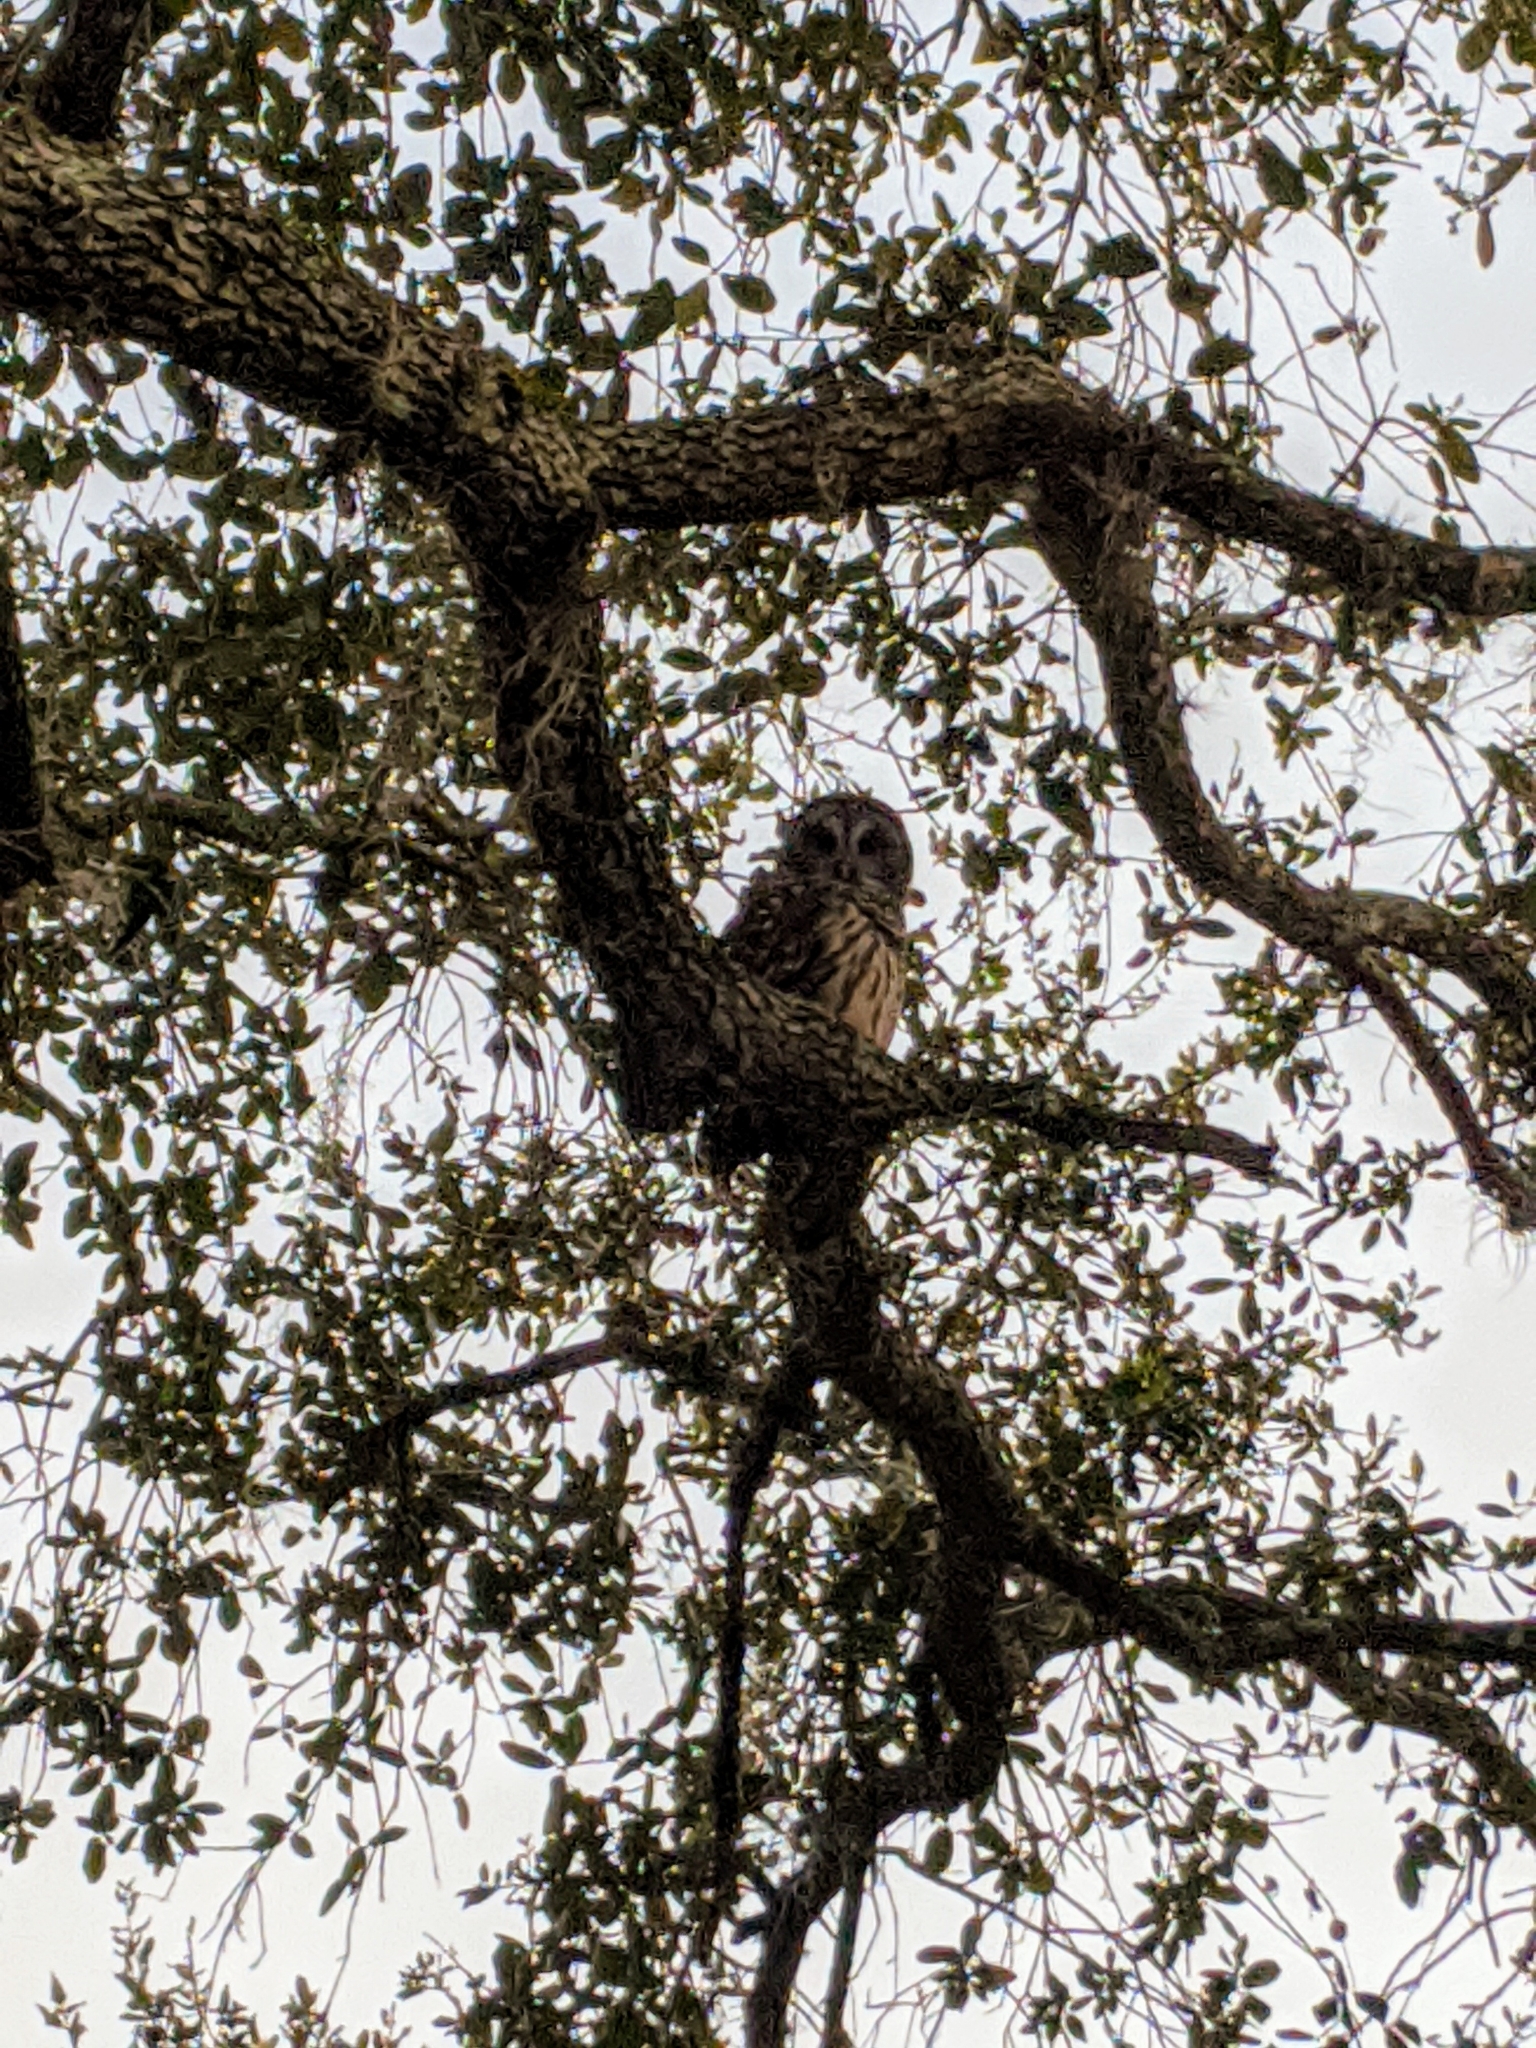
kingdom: Animalia
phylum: Chordata
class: Aves
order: Strigiformes
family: Strigidae
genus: Strix
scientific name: Strix varia
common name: Barred owl
